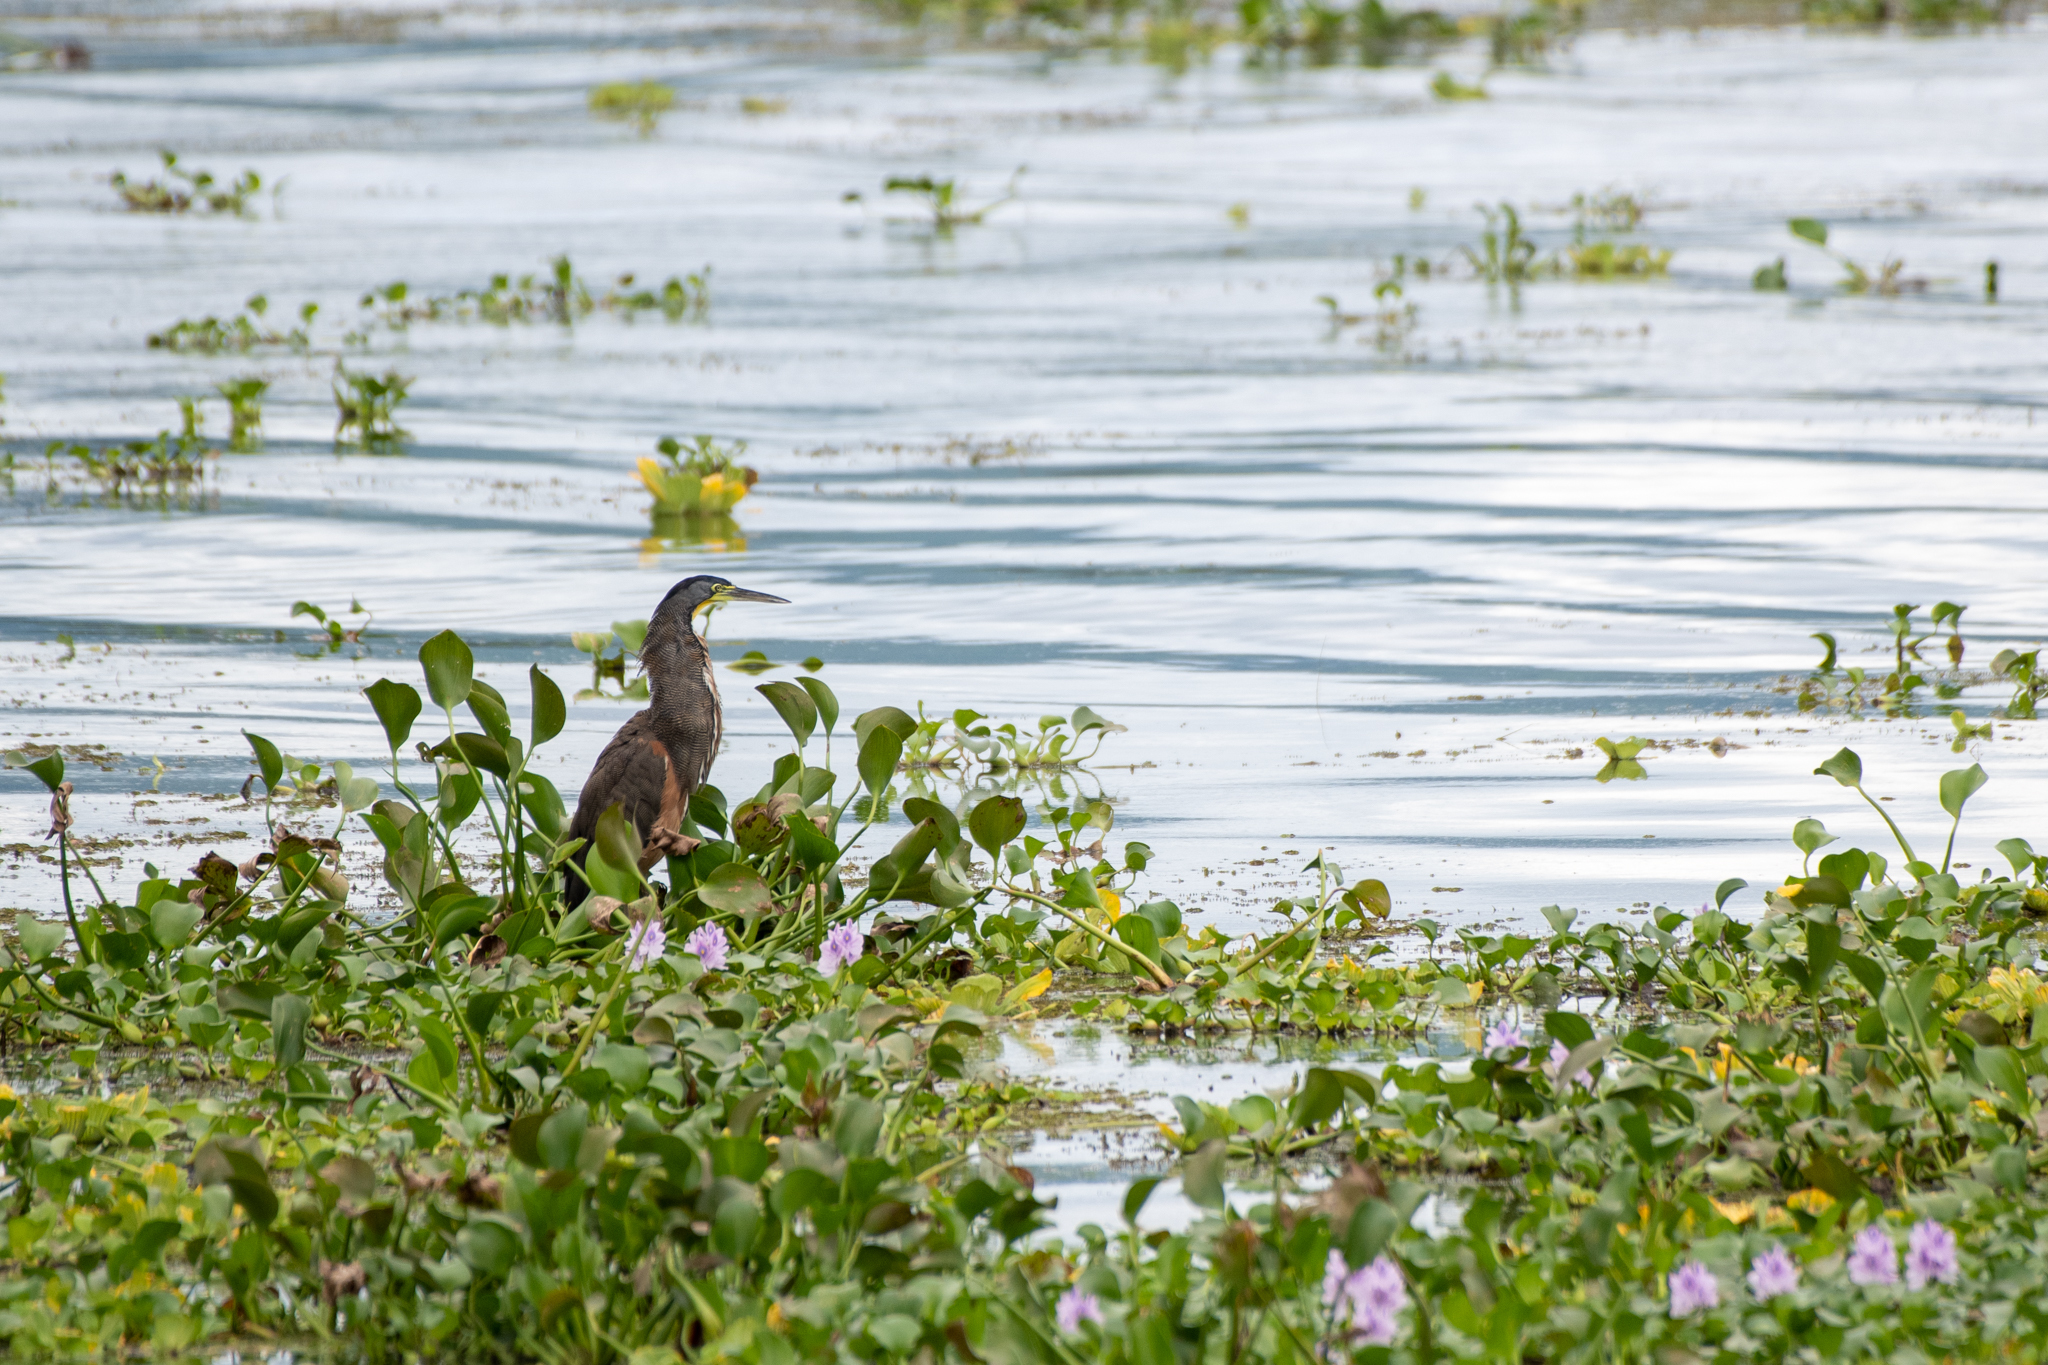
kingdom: Animalia
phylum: Chordata
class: Aves
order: Pelecaniformes
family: Ardeidae
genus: Tigrisoma
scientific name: Tigrisoma mexicanum
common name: Bare-throated tiger-heron
